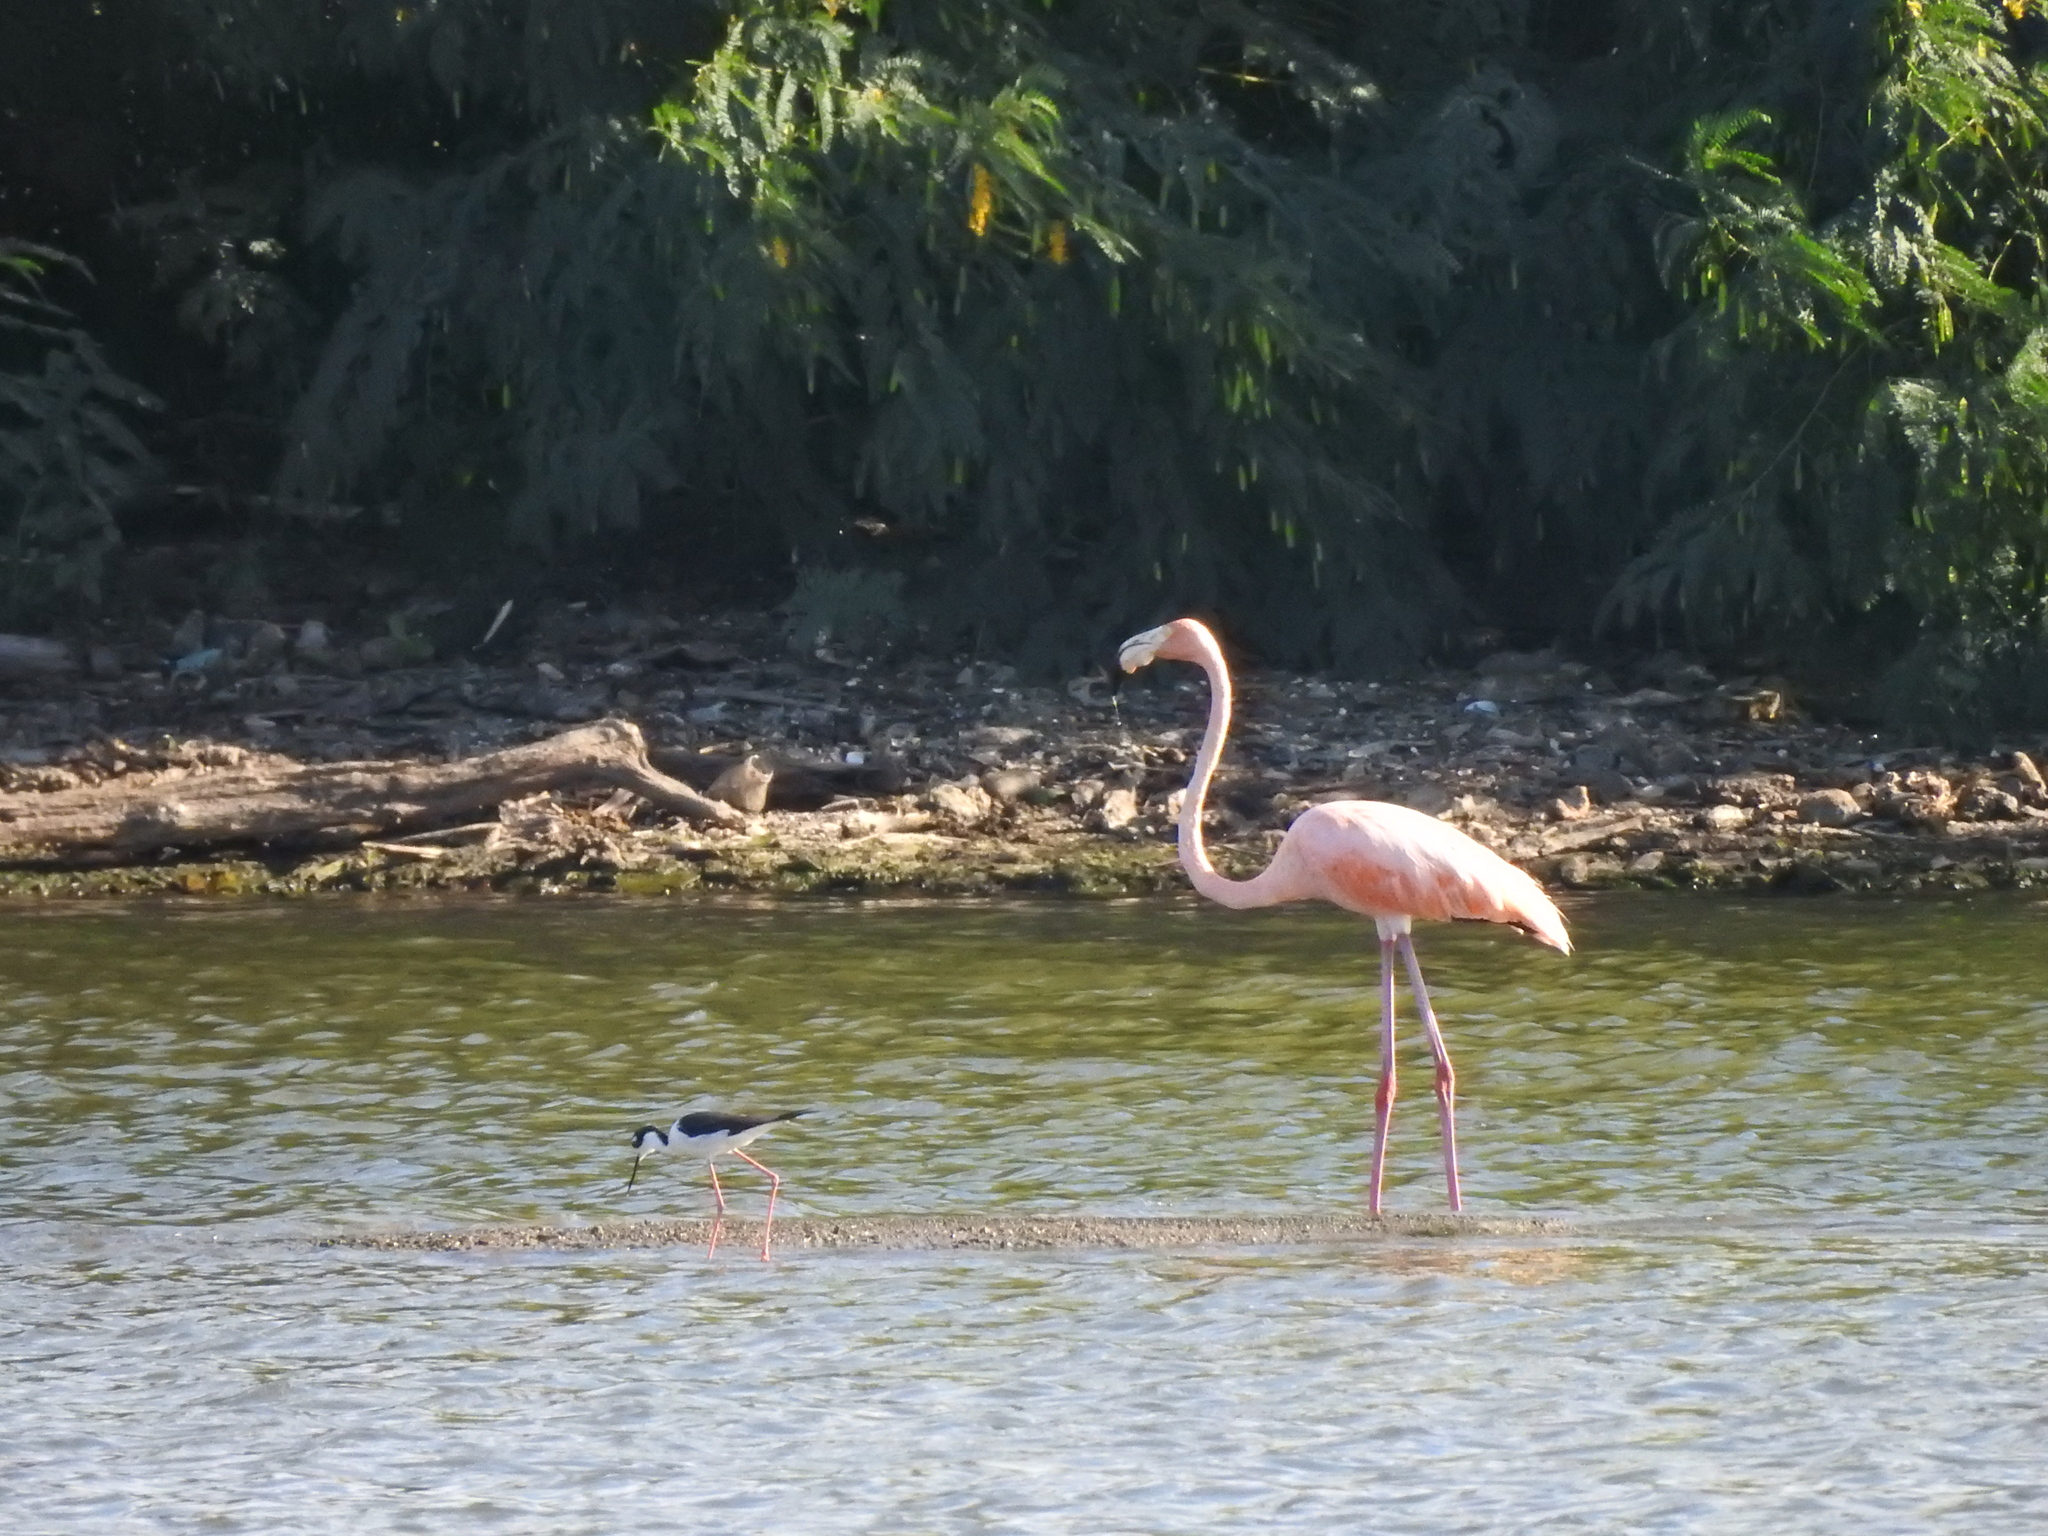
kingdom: Animalia
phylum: Chordata
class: Aves
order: Phoenicopteriformes
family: Phoenicopteridae
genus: Phoenicopterus
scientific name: Phoenicopterus ruber
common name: American flamingo
